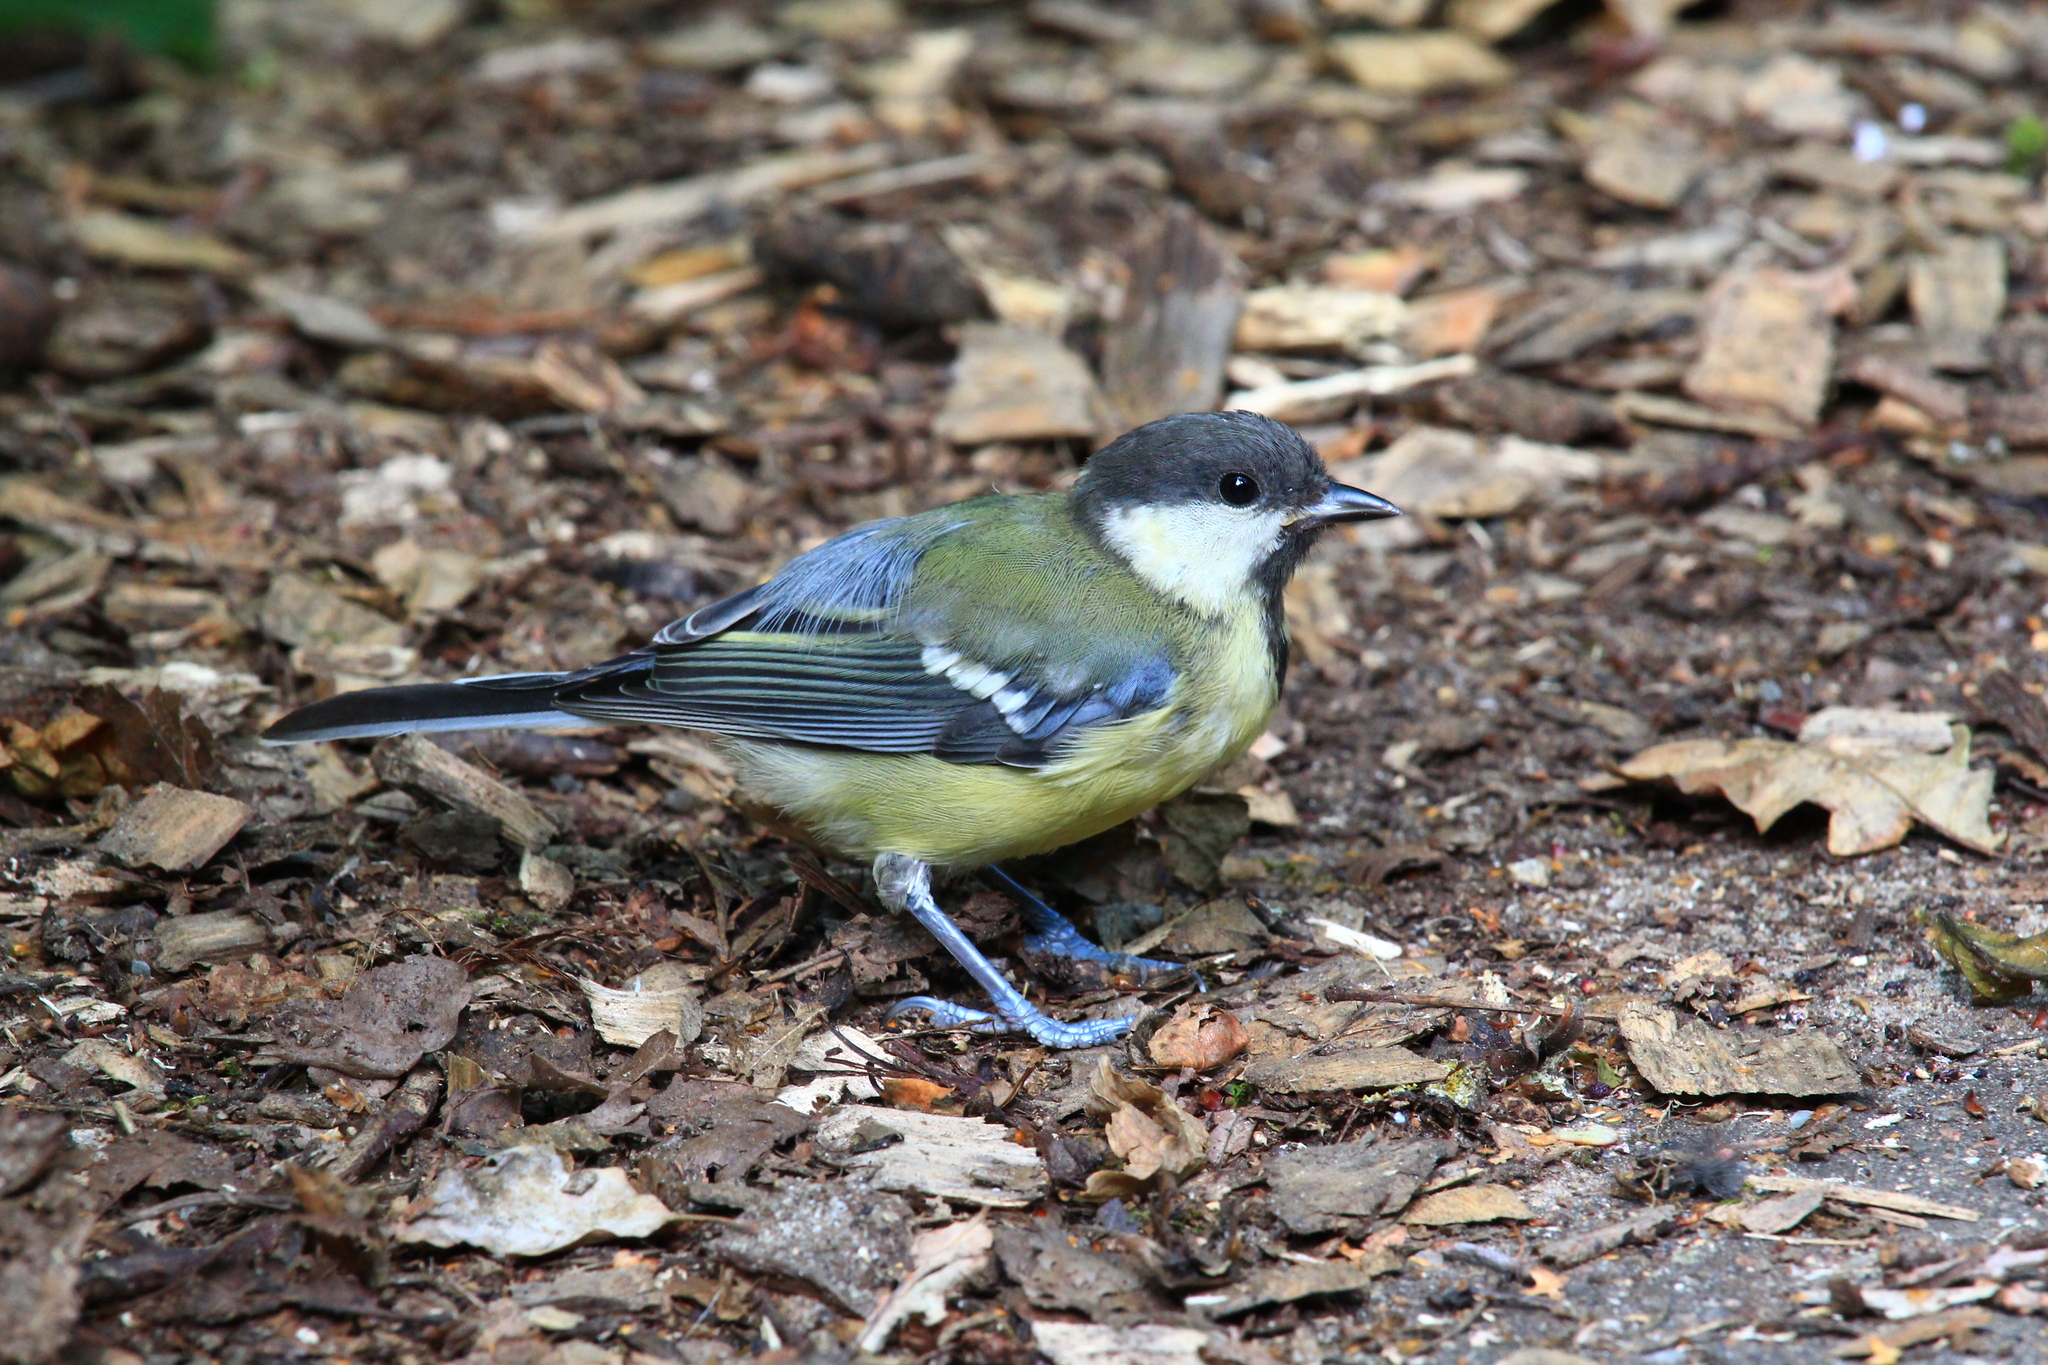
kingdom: Animalia
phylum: Chordata
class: Aves
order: Passeriformes
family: Paridae
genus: Parus
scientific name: Parus major
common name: Great tit
